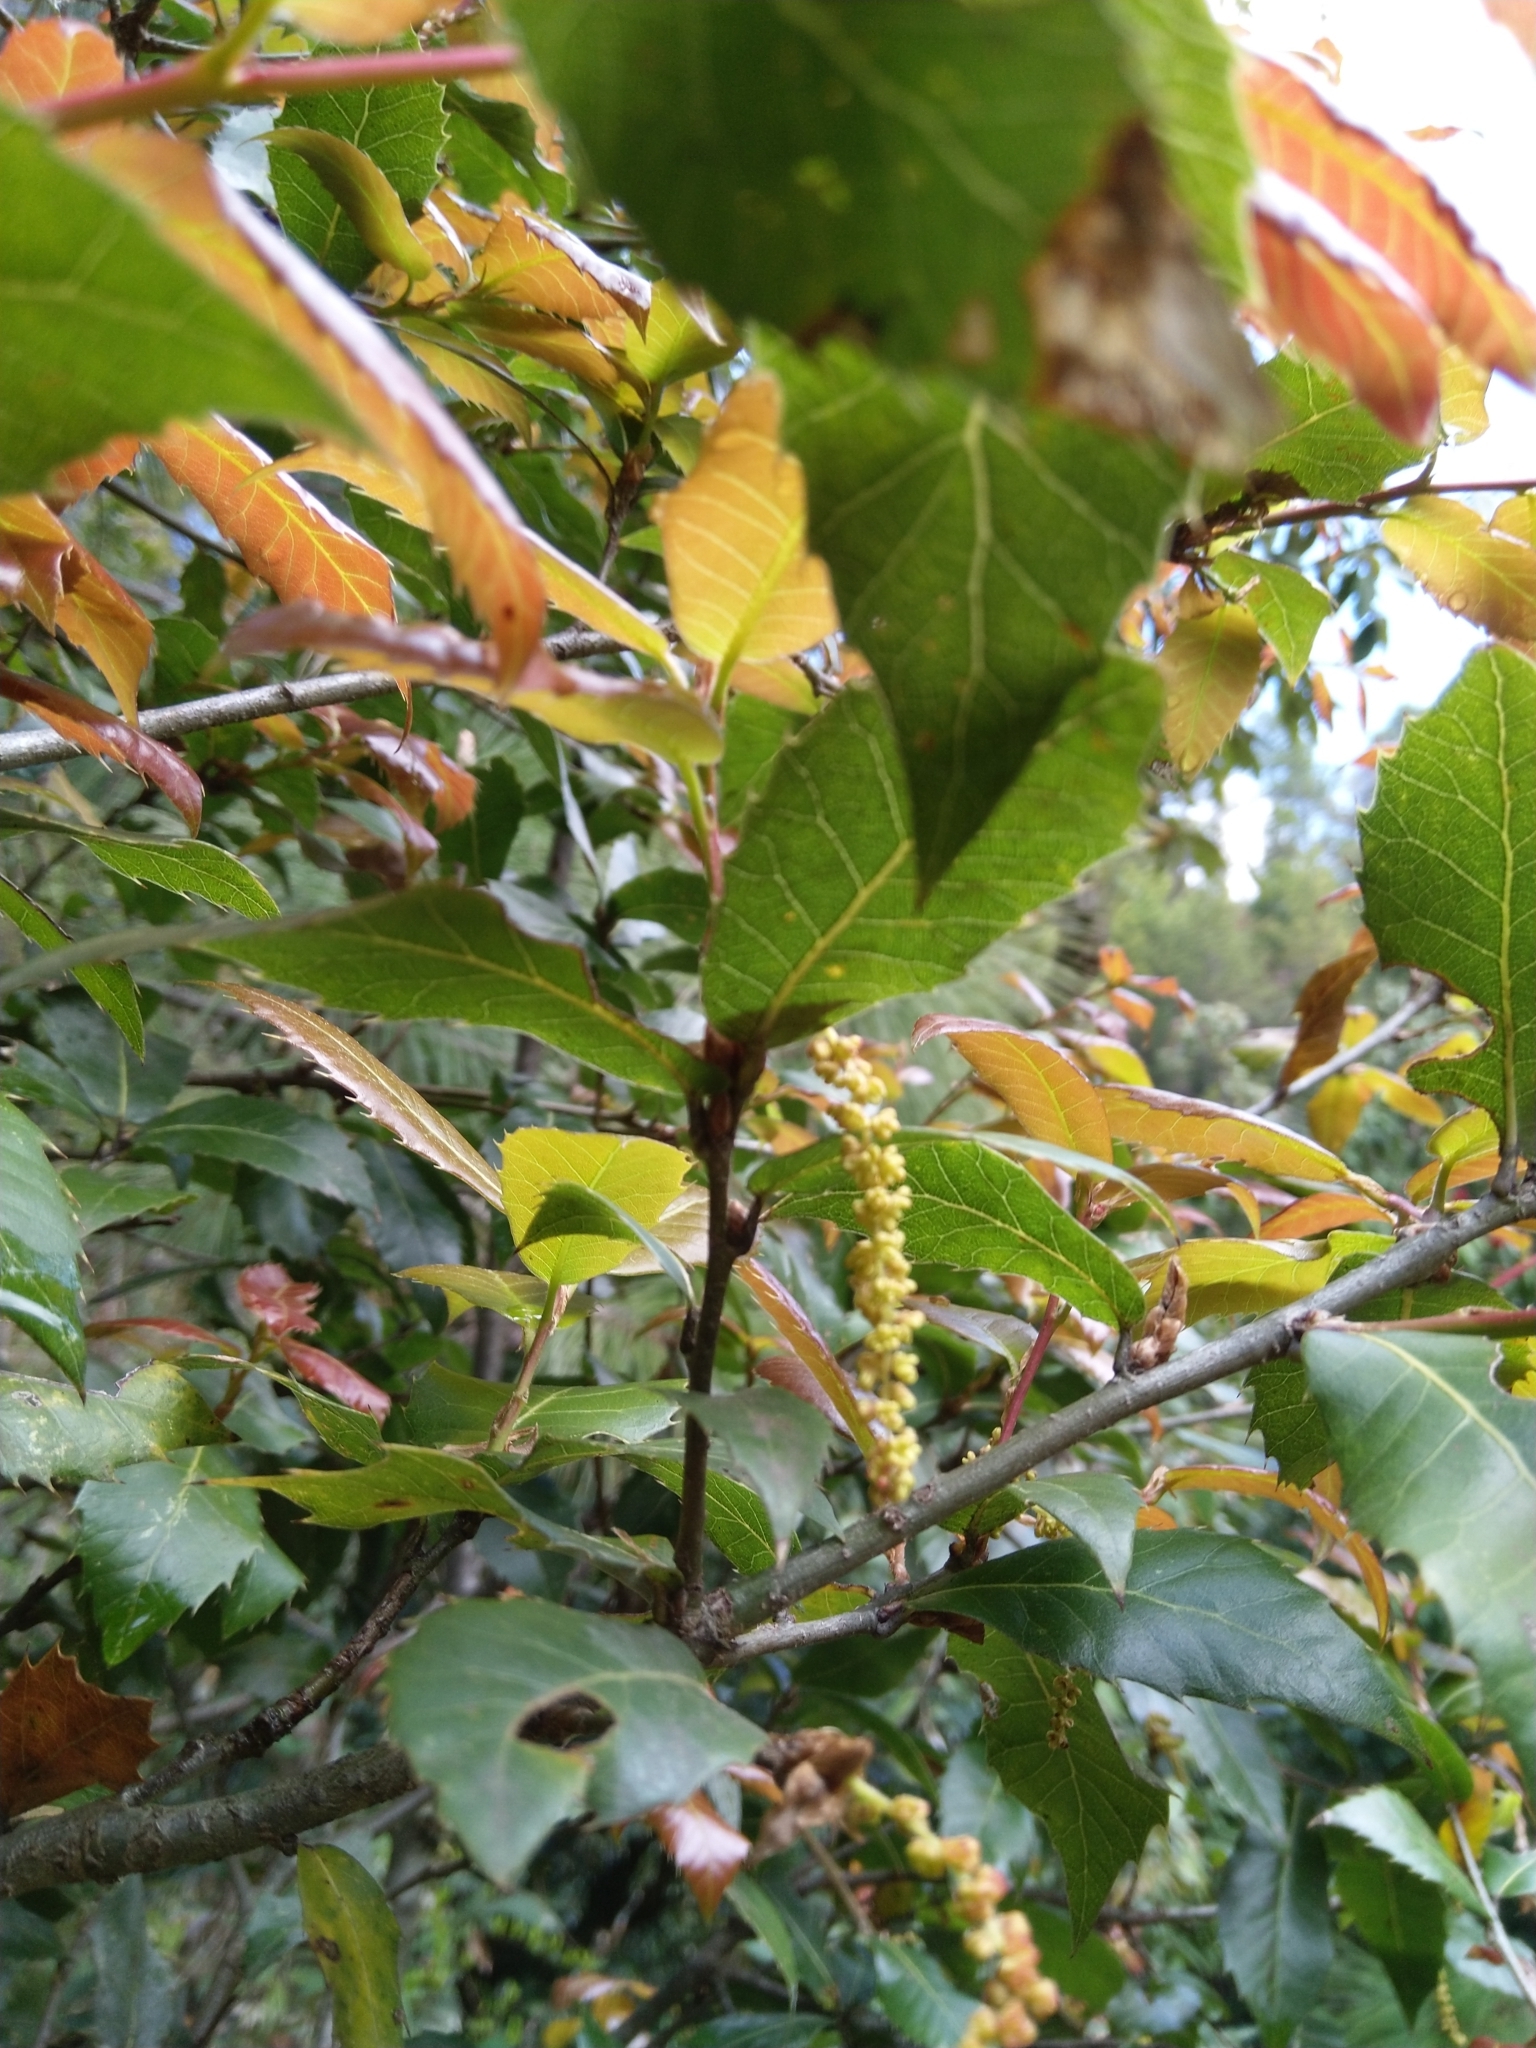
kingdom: Plantae
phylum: Tracheophyta
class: Magnoliopsida
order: Fagales
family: Fagaceae
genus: Quercus
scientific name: Quercus floribunda
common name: Moru
